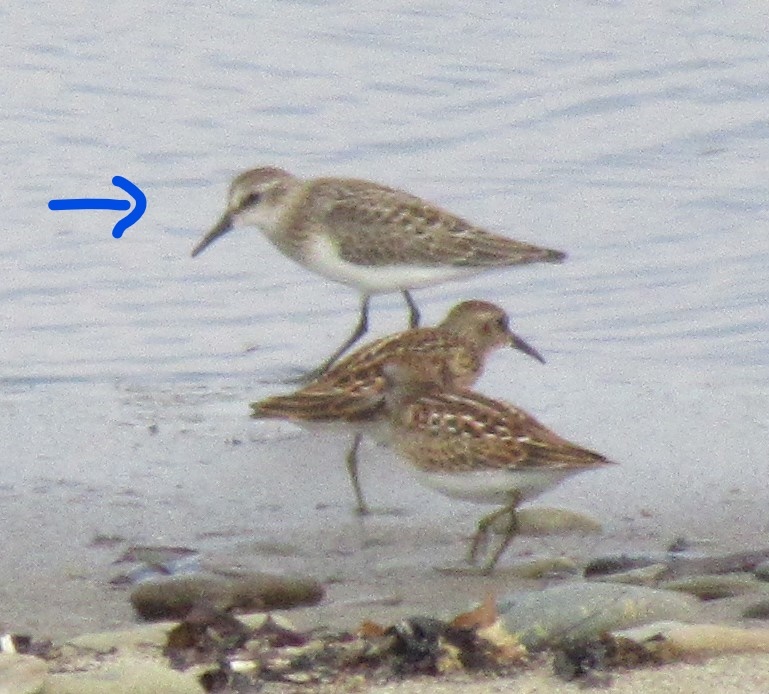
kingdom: Animalia
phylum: Chordata
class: Aves
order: Charadriiformes
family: Scolopacidae
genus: Calidris
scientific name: Calidris pusilla
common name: Semipalmated sandpiper
